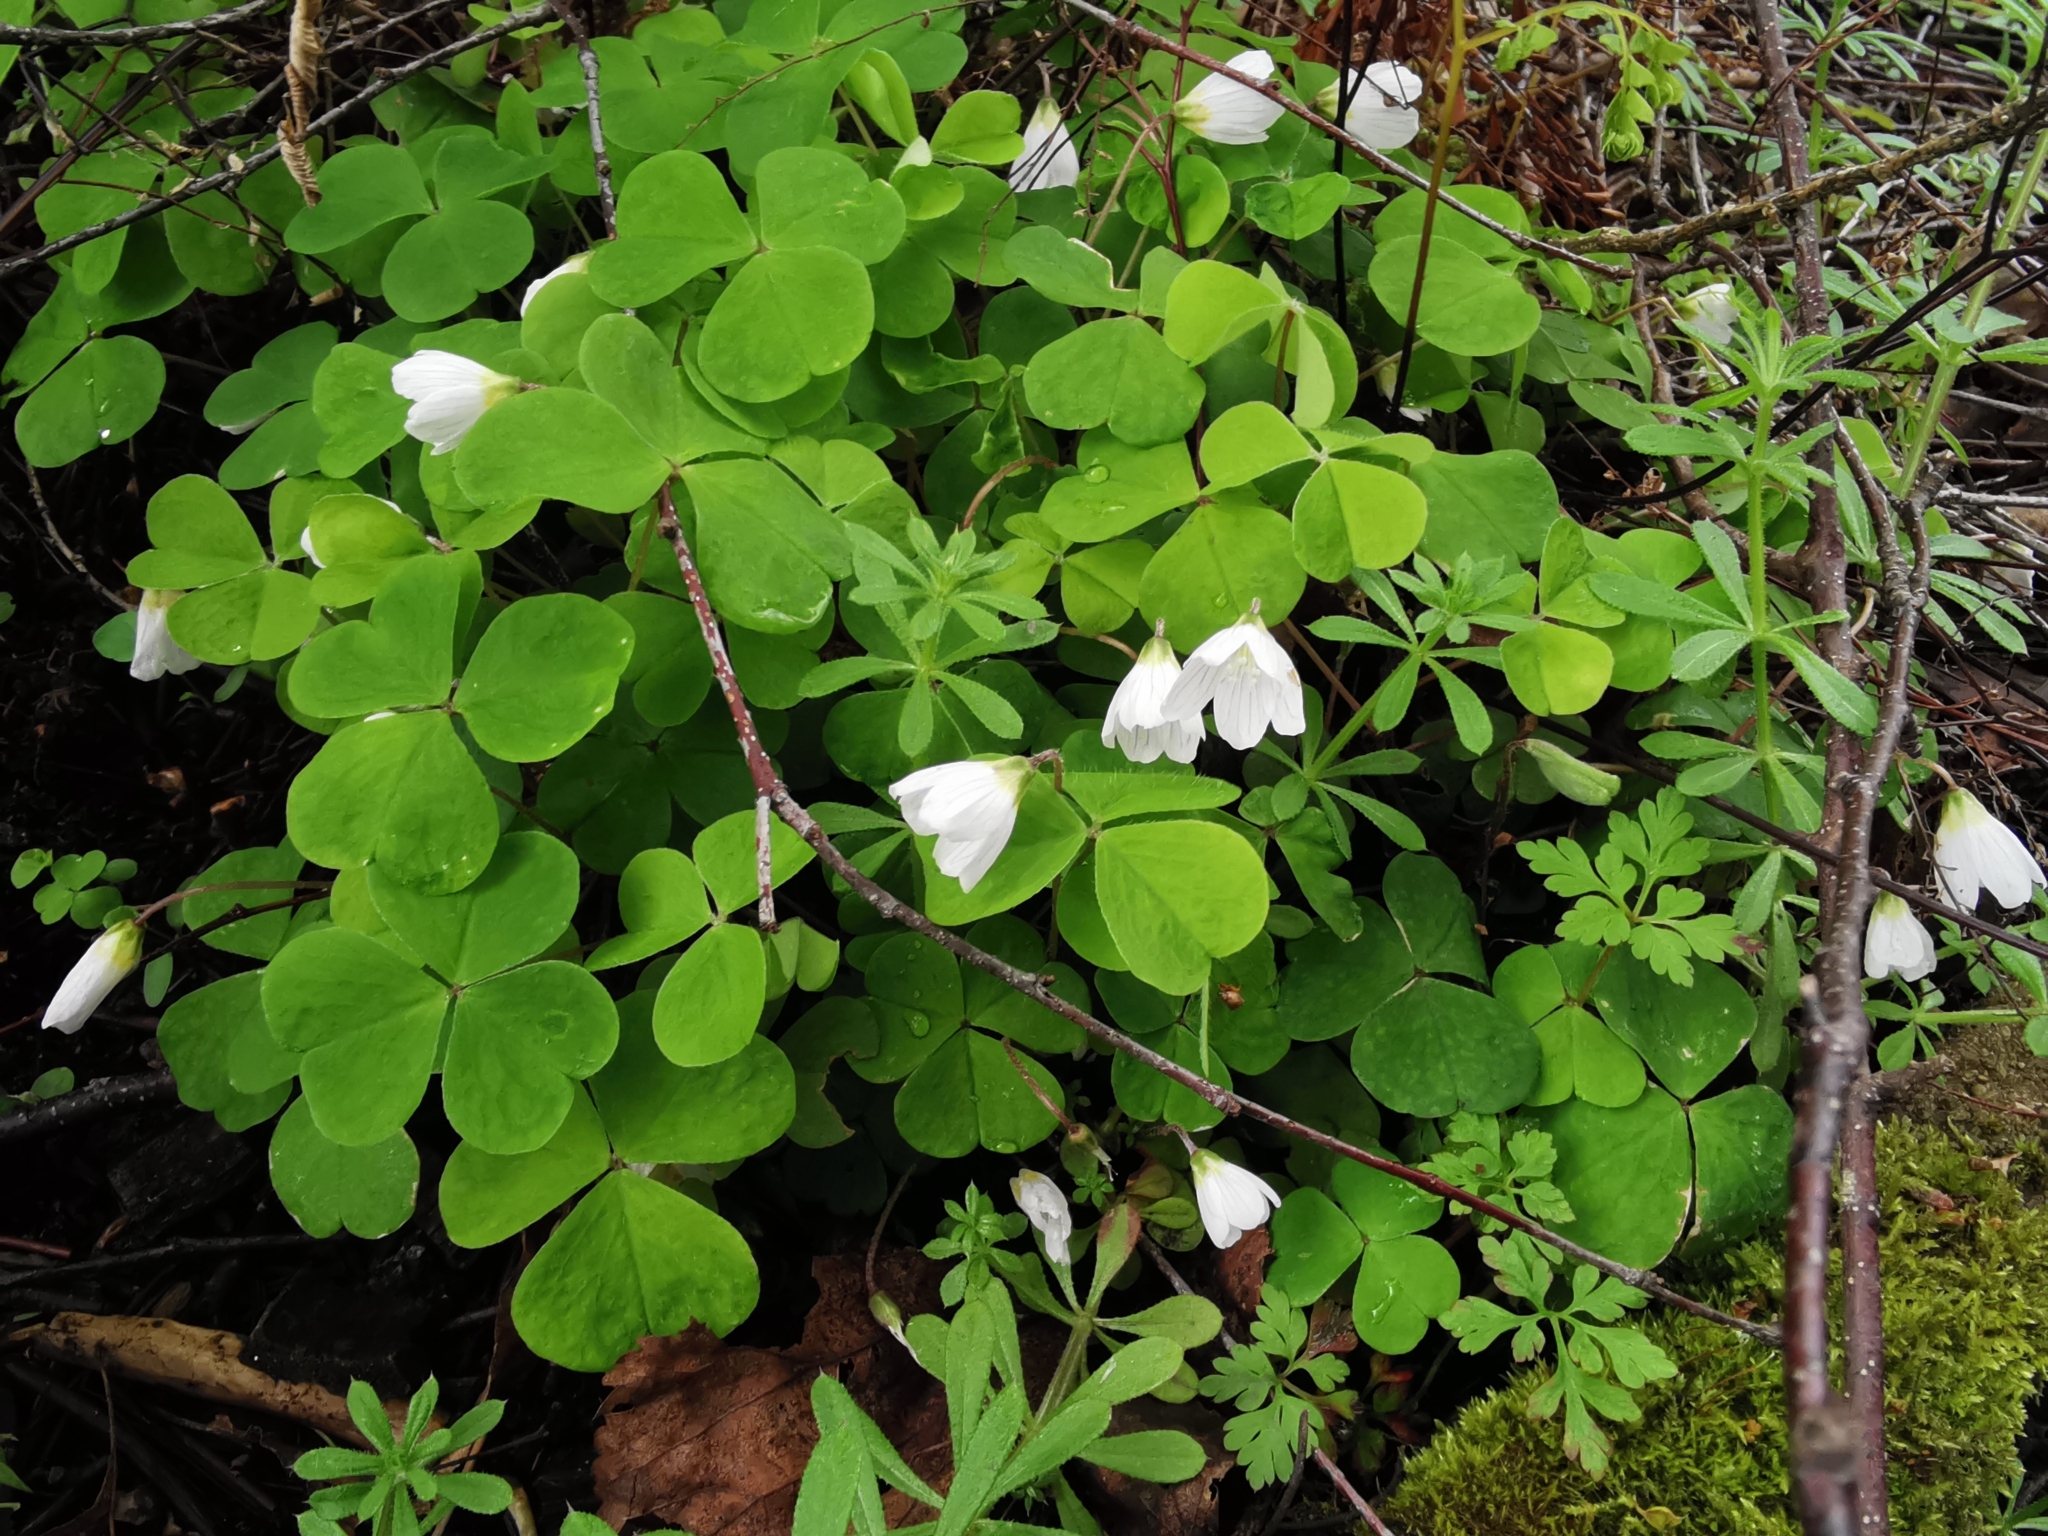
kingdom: Plantae
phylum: Tracheophyta
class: Magnoliopsida
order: Oxalidales
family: Oxalidaceae
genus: Oxalis
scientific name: Oxalis acetosella
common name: Wood-sorrel
